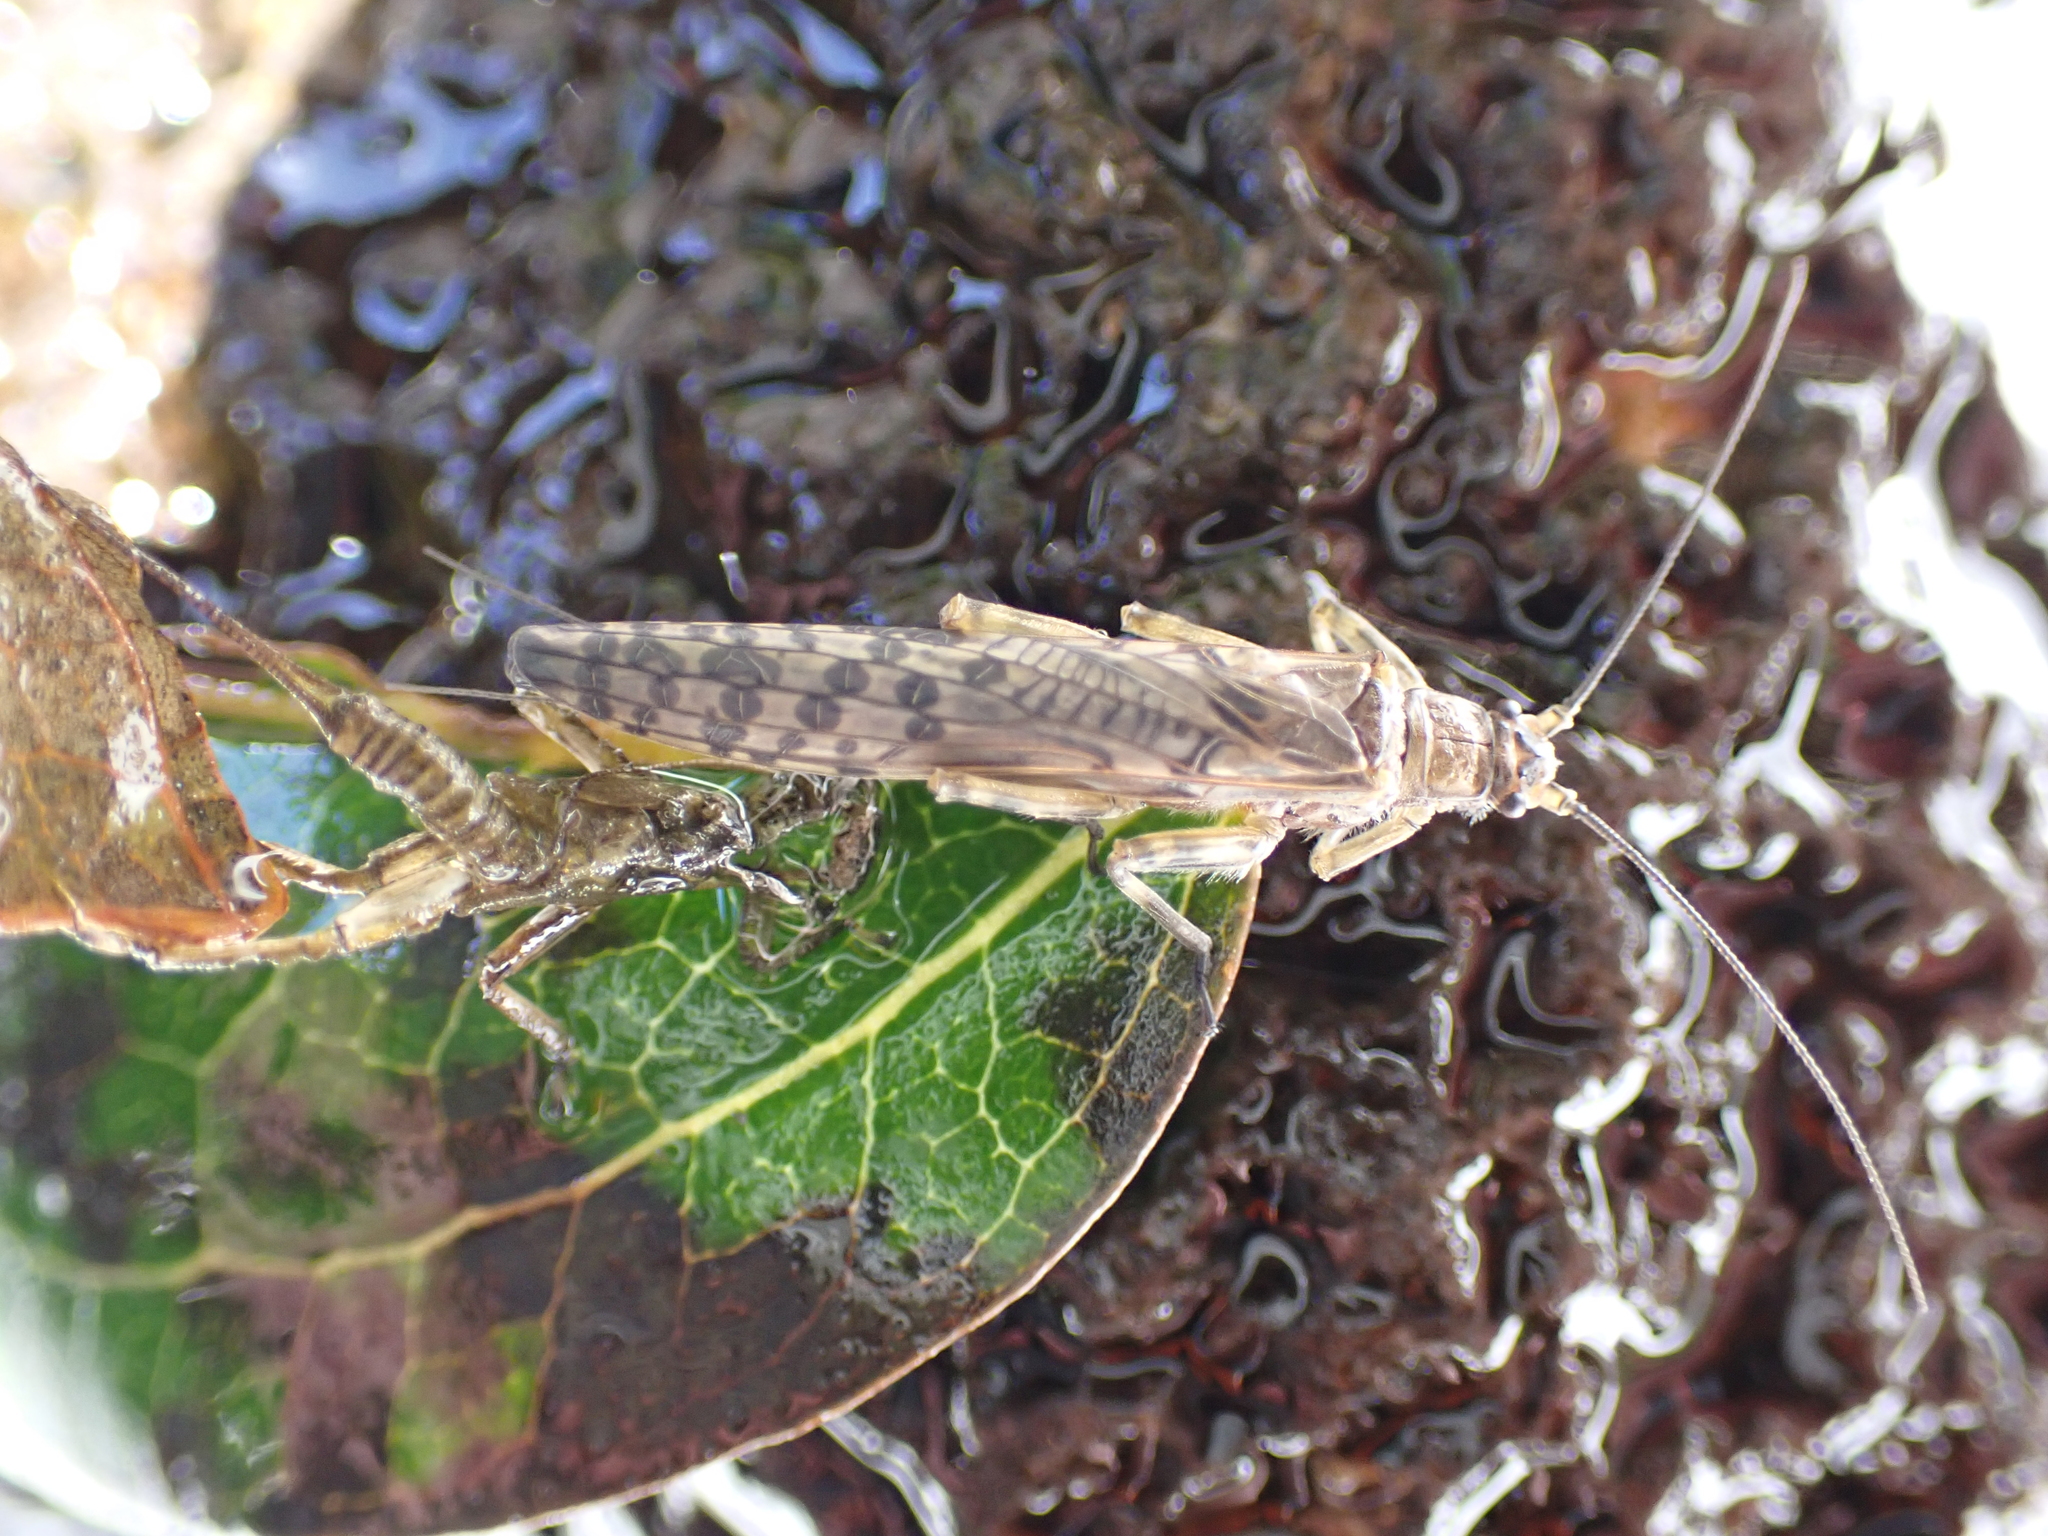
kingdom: Animalia
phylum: Arthropoda
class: Insecta
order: Plecoptera
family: Gripopterygidae
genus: Zelandoperla
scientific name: Zelandoperla agnetis
